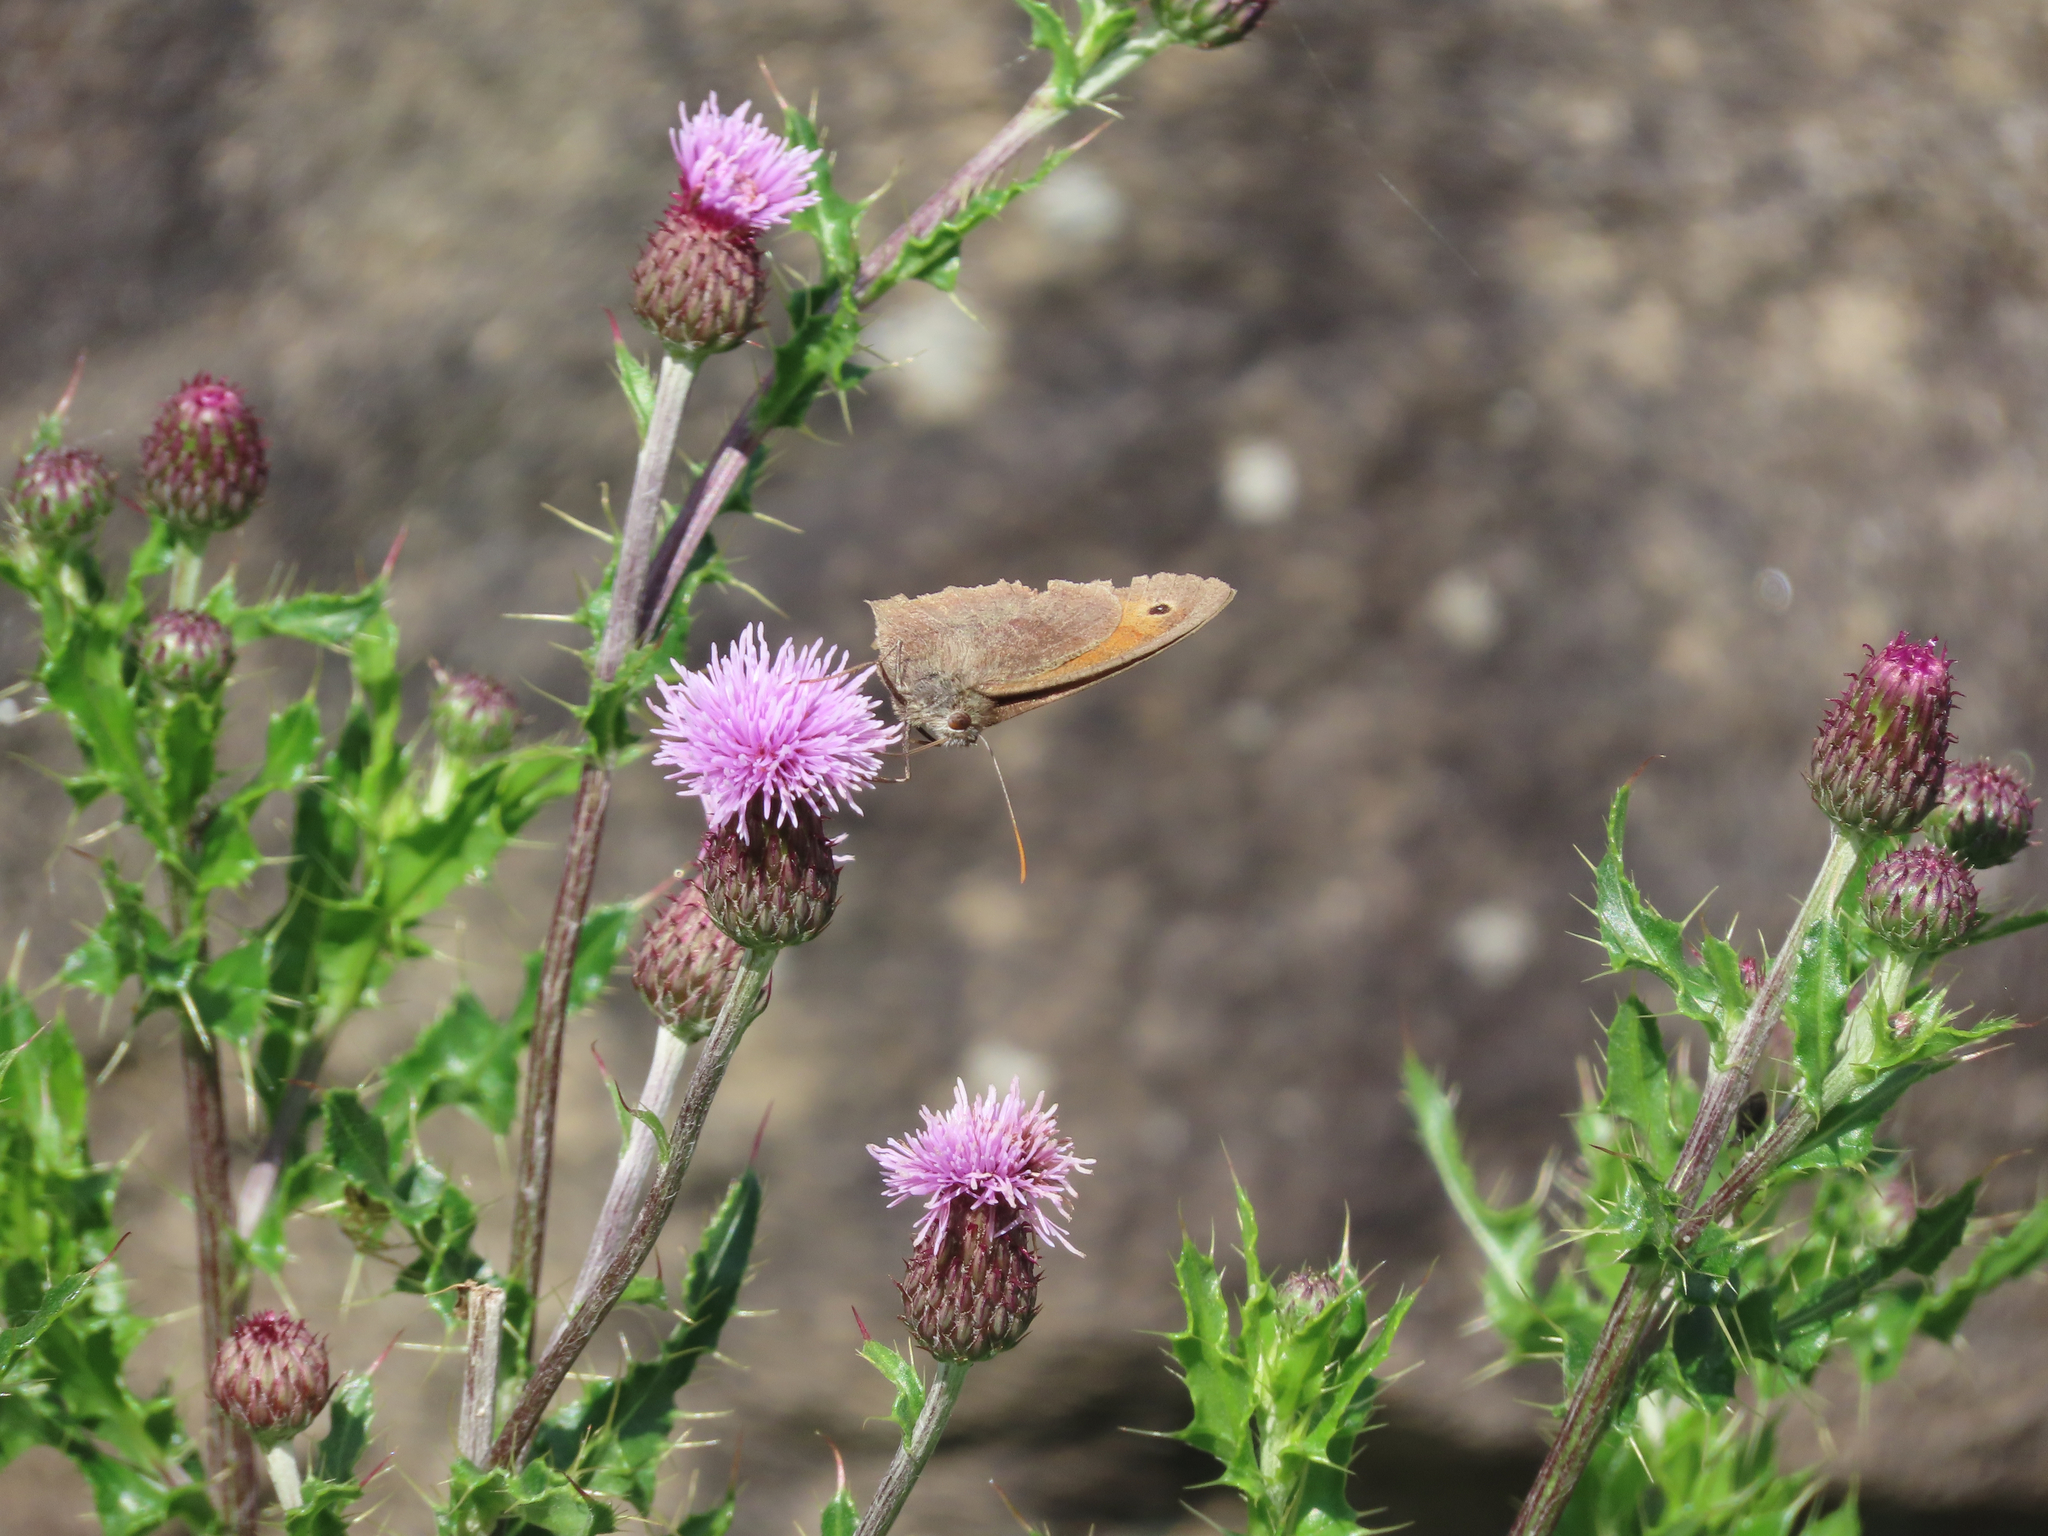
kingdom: Animalia
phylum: Arthropoda
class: Insecta
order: Lepidoptera
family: Nymphalidae
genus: Maniola
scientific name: Maniola jurtina
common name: Meadow brown
